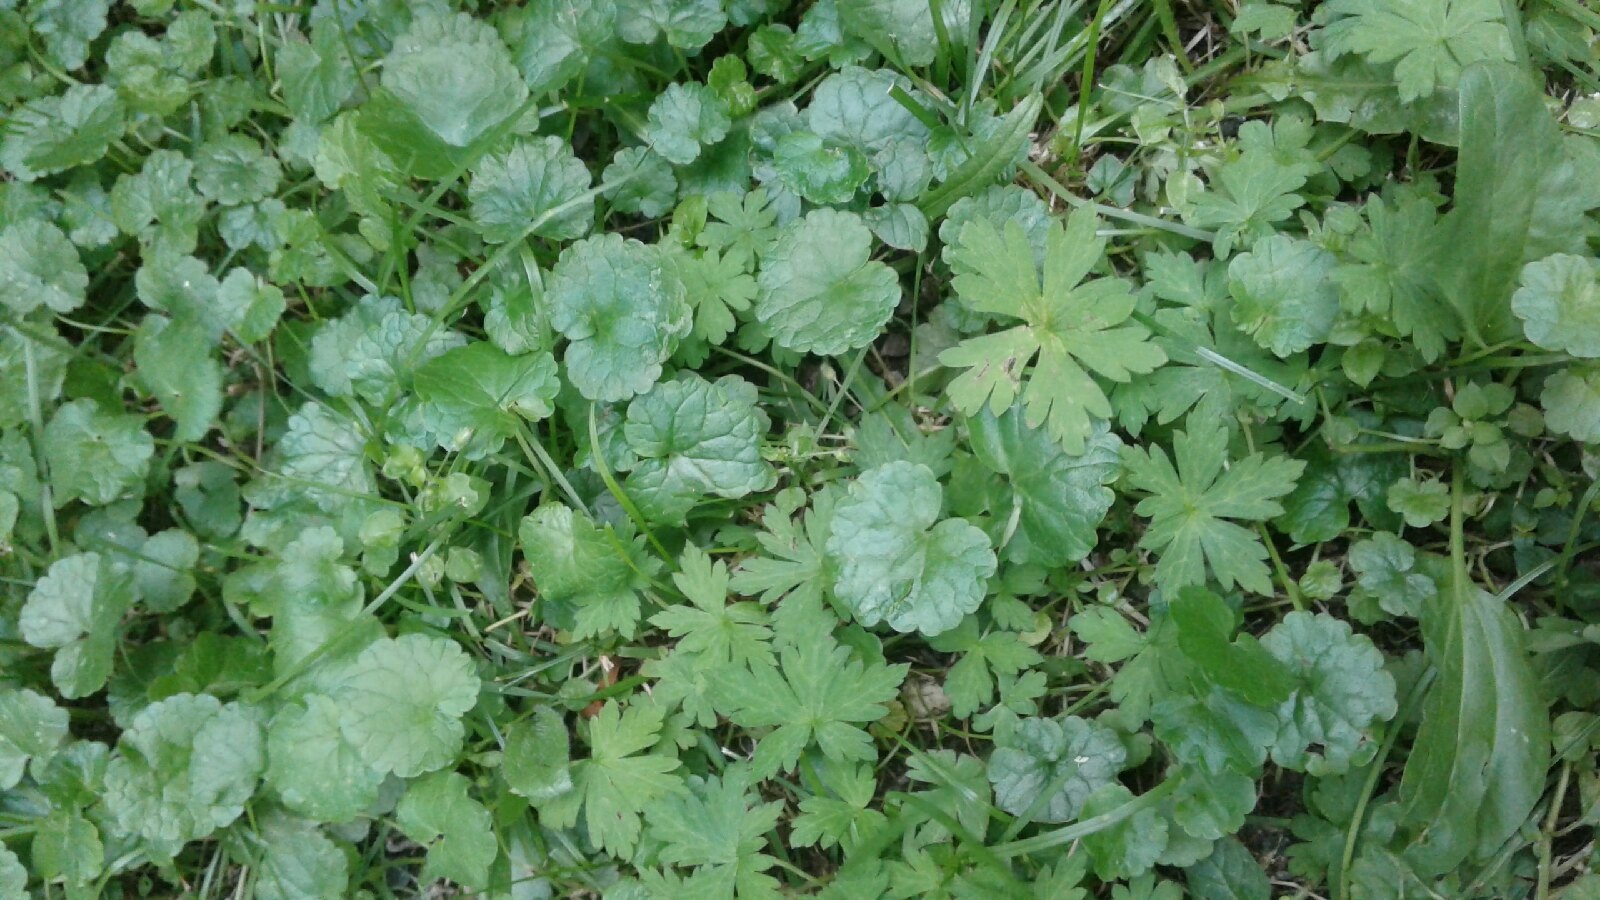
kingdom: Plantae
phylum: Tracheophyta
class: Magnoliopsida
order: Geraniales
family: Geraniaceae
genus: Geranium
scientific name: Geranium sibiricum
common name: Siberian crane's-bill
